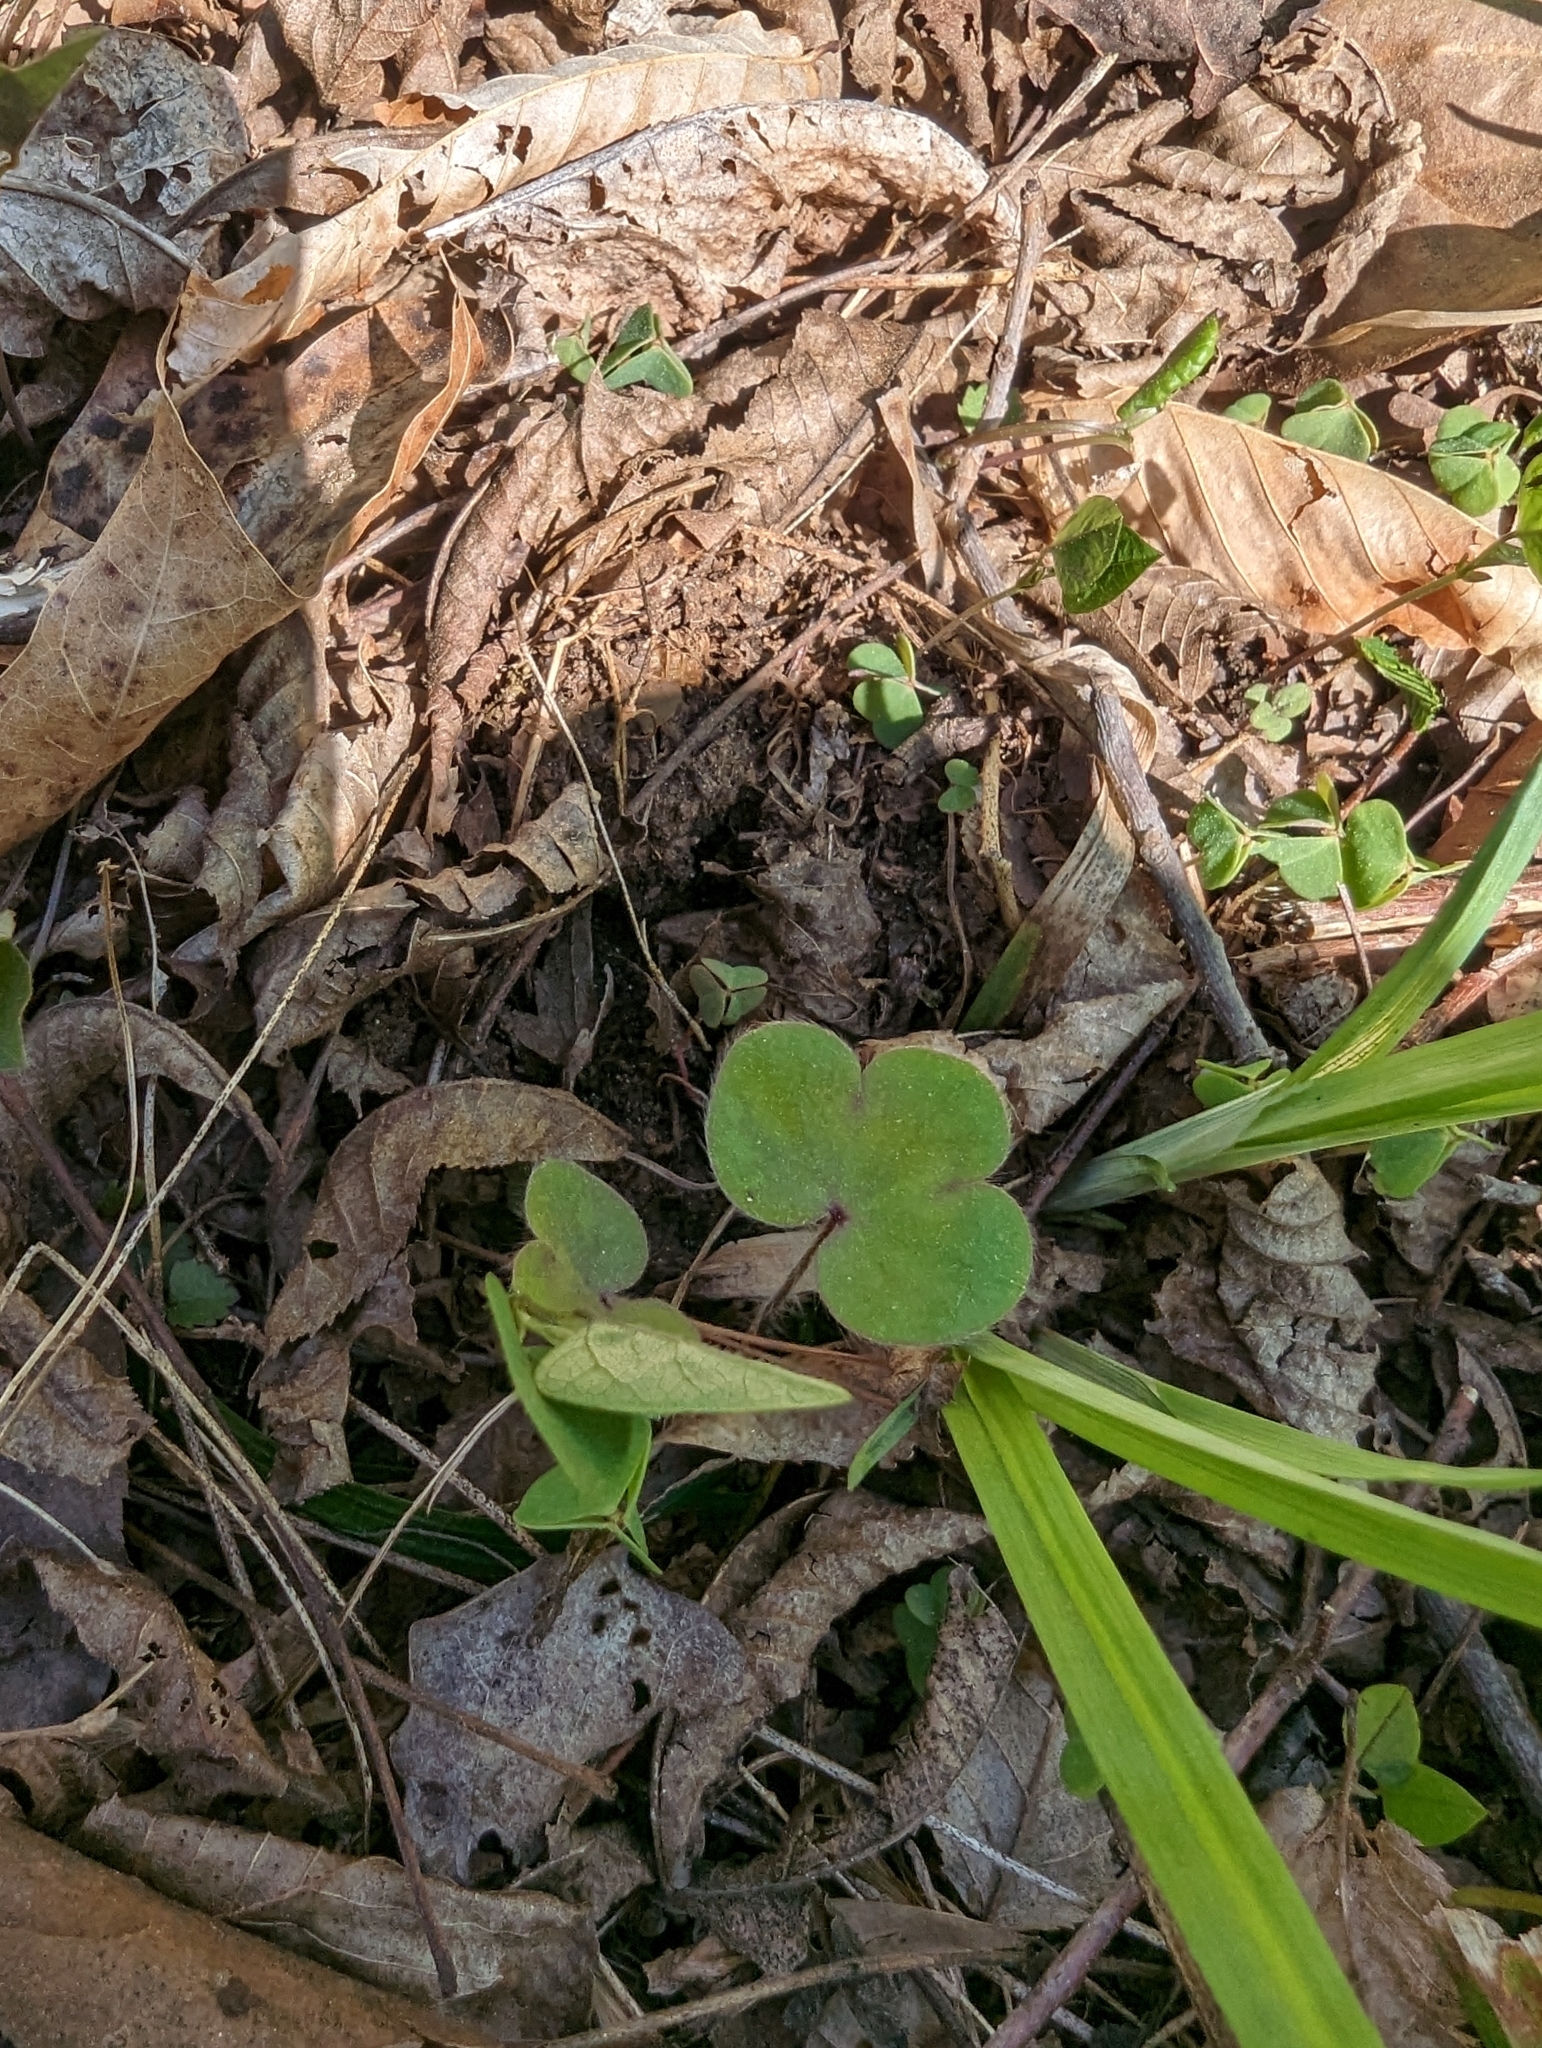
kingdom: Plantae
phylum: Tracheophyta
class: Magnoliopsida
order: Ranunculales
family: Ranunculaceae
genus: Hepatica
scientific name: Hepatica americana
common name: American hepatica
